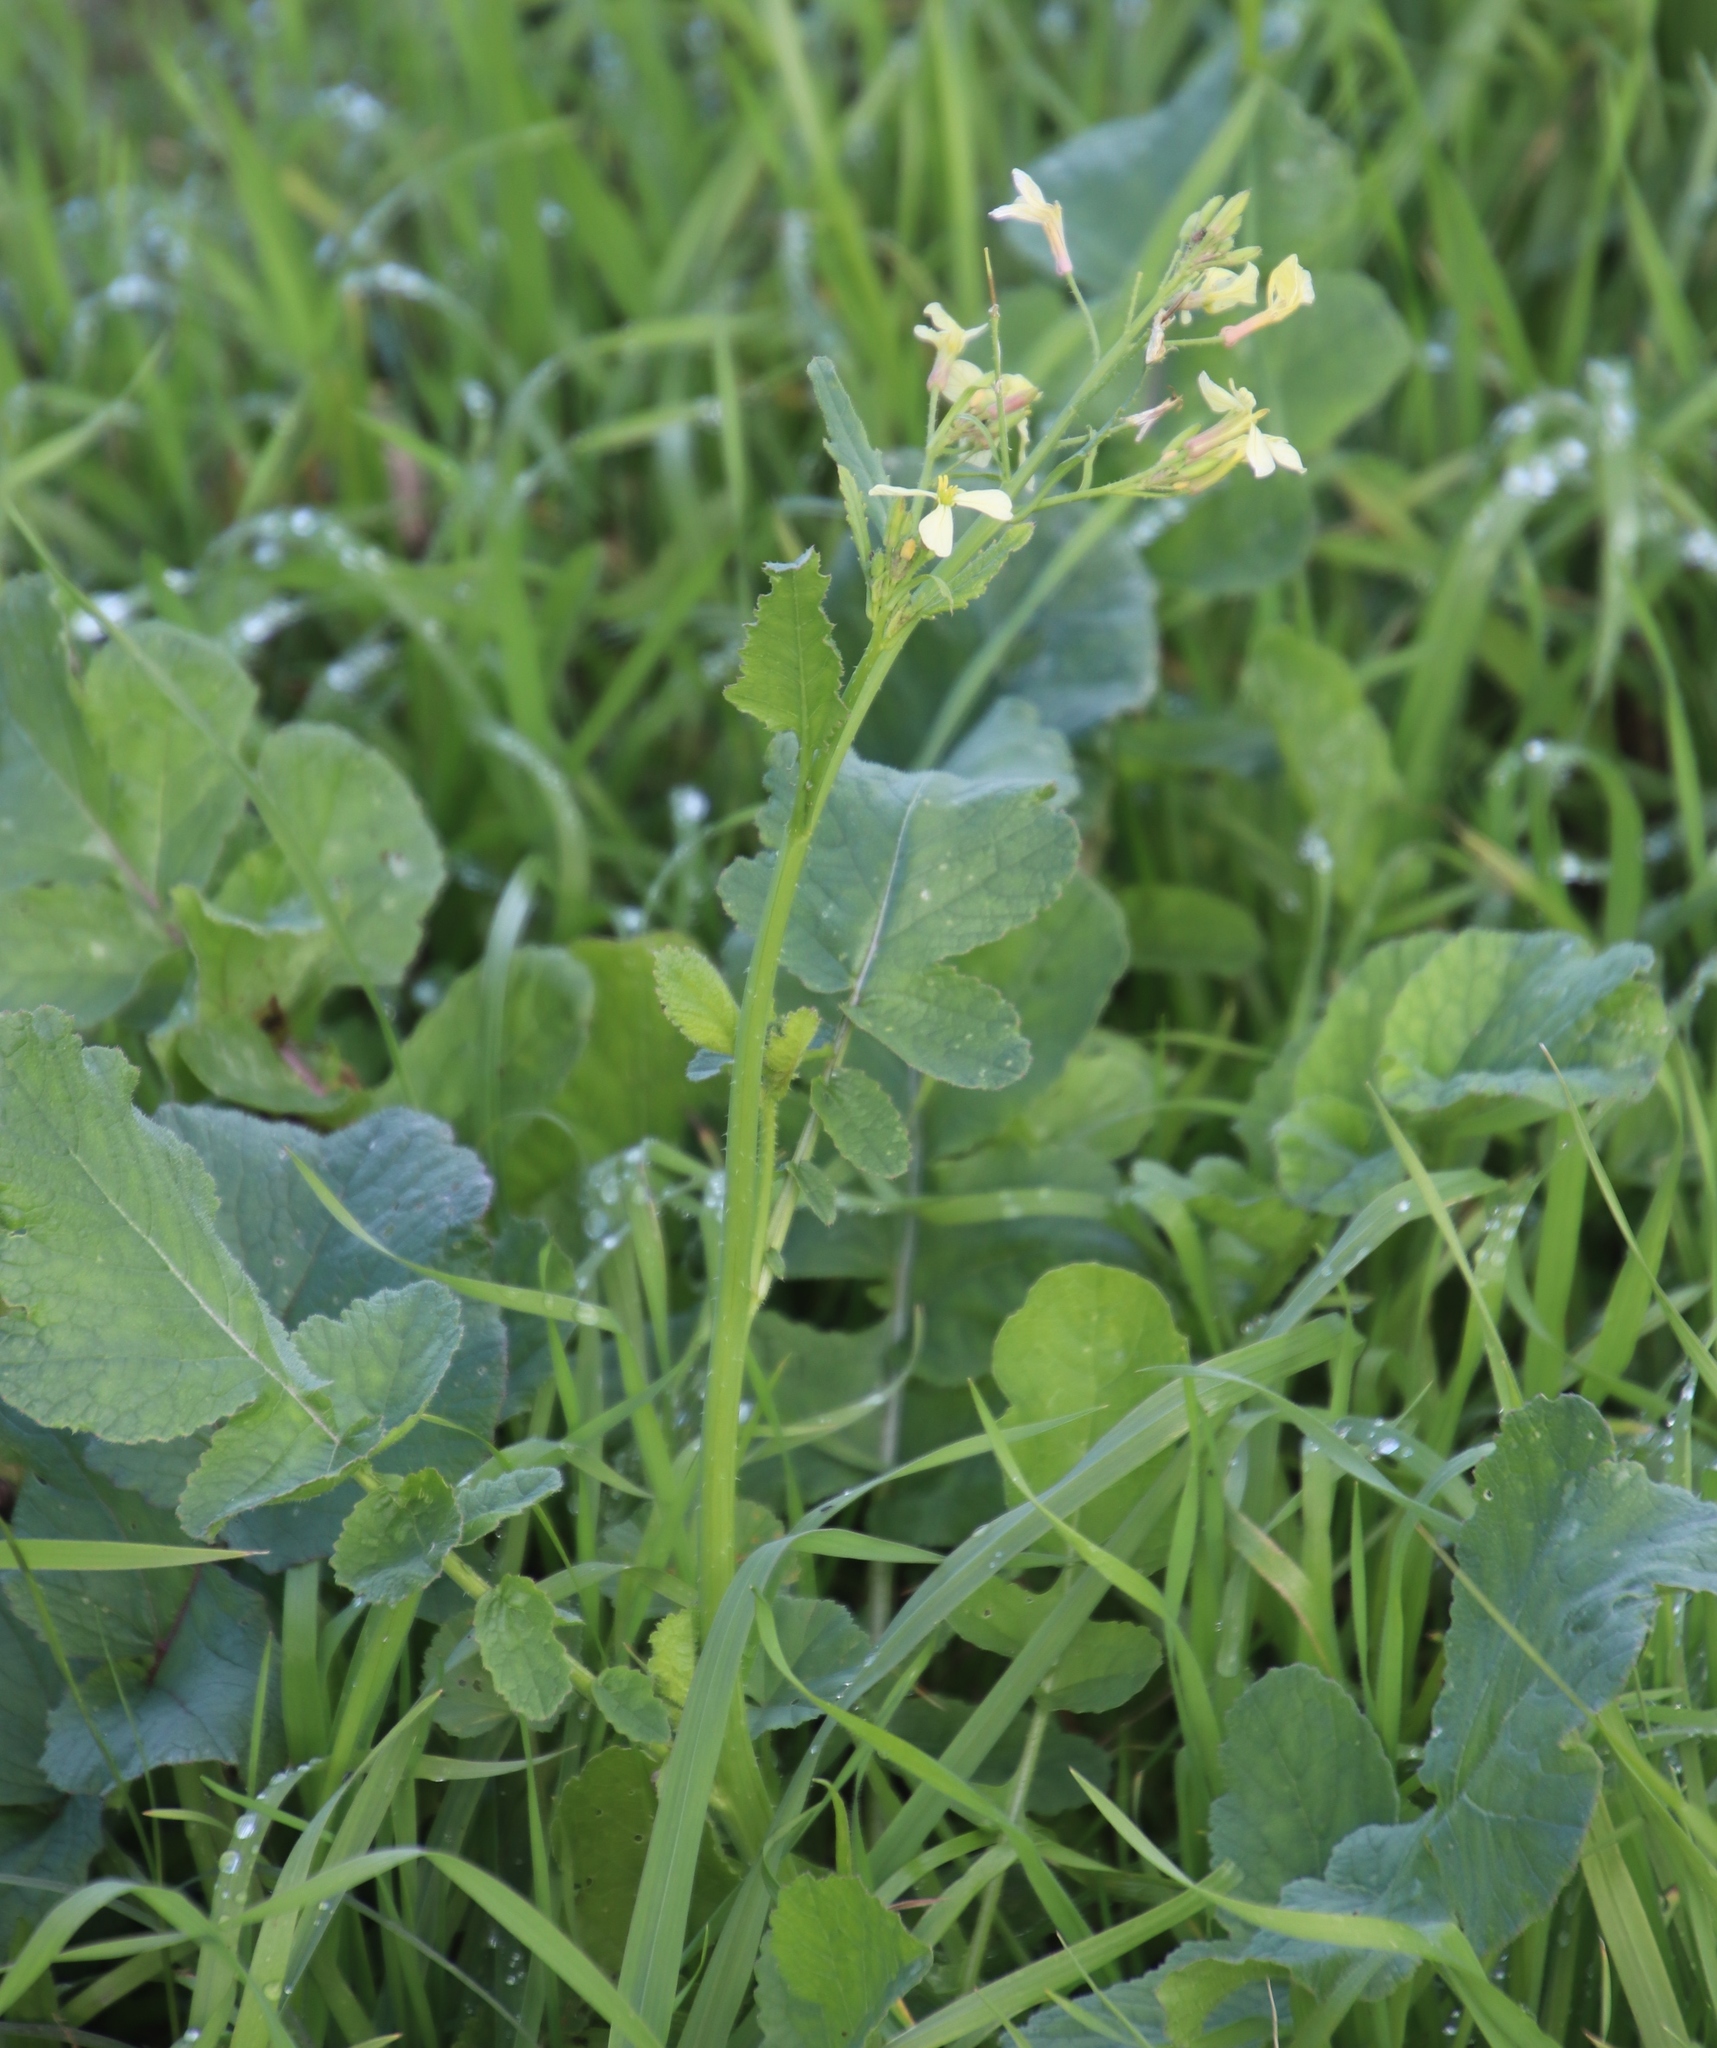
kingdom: Plantae
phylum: Tracheophyta
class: Magnoliopsida
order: Brassicales
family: Brassicaceae
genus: Raphanus
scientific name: Raphanus raphanistrum
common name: Wild radish
